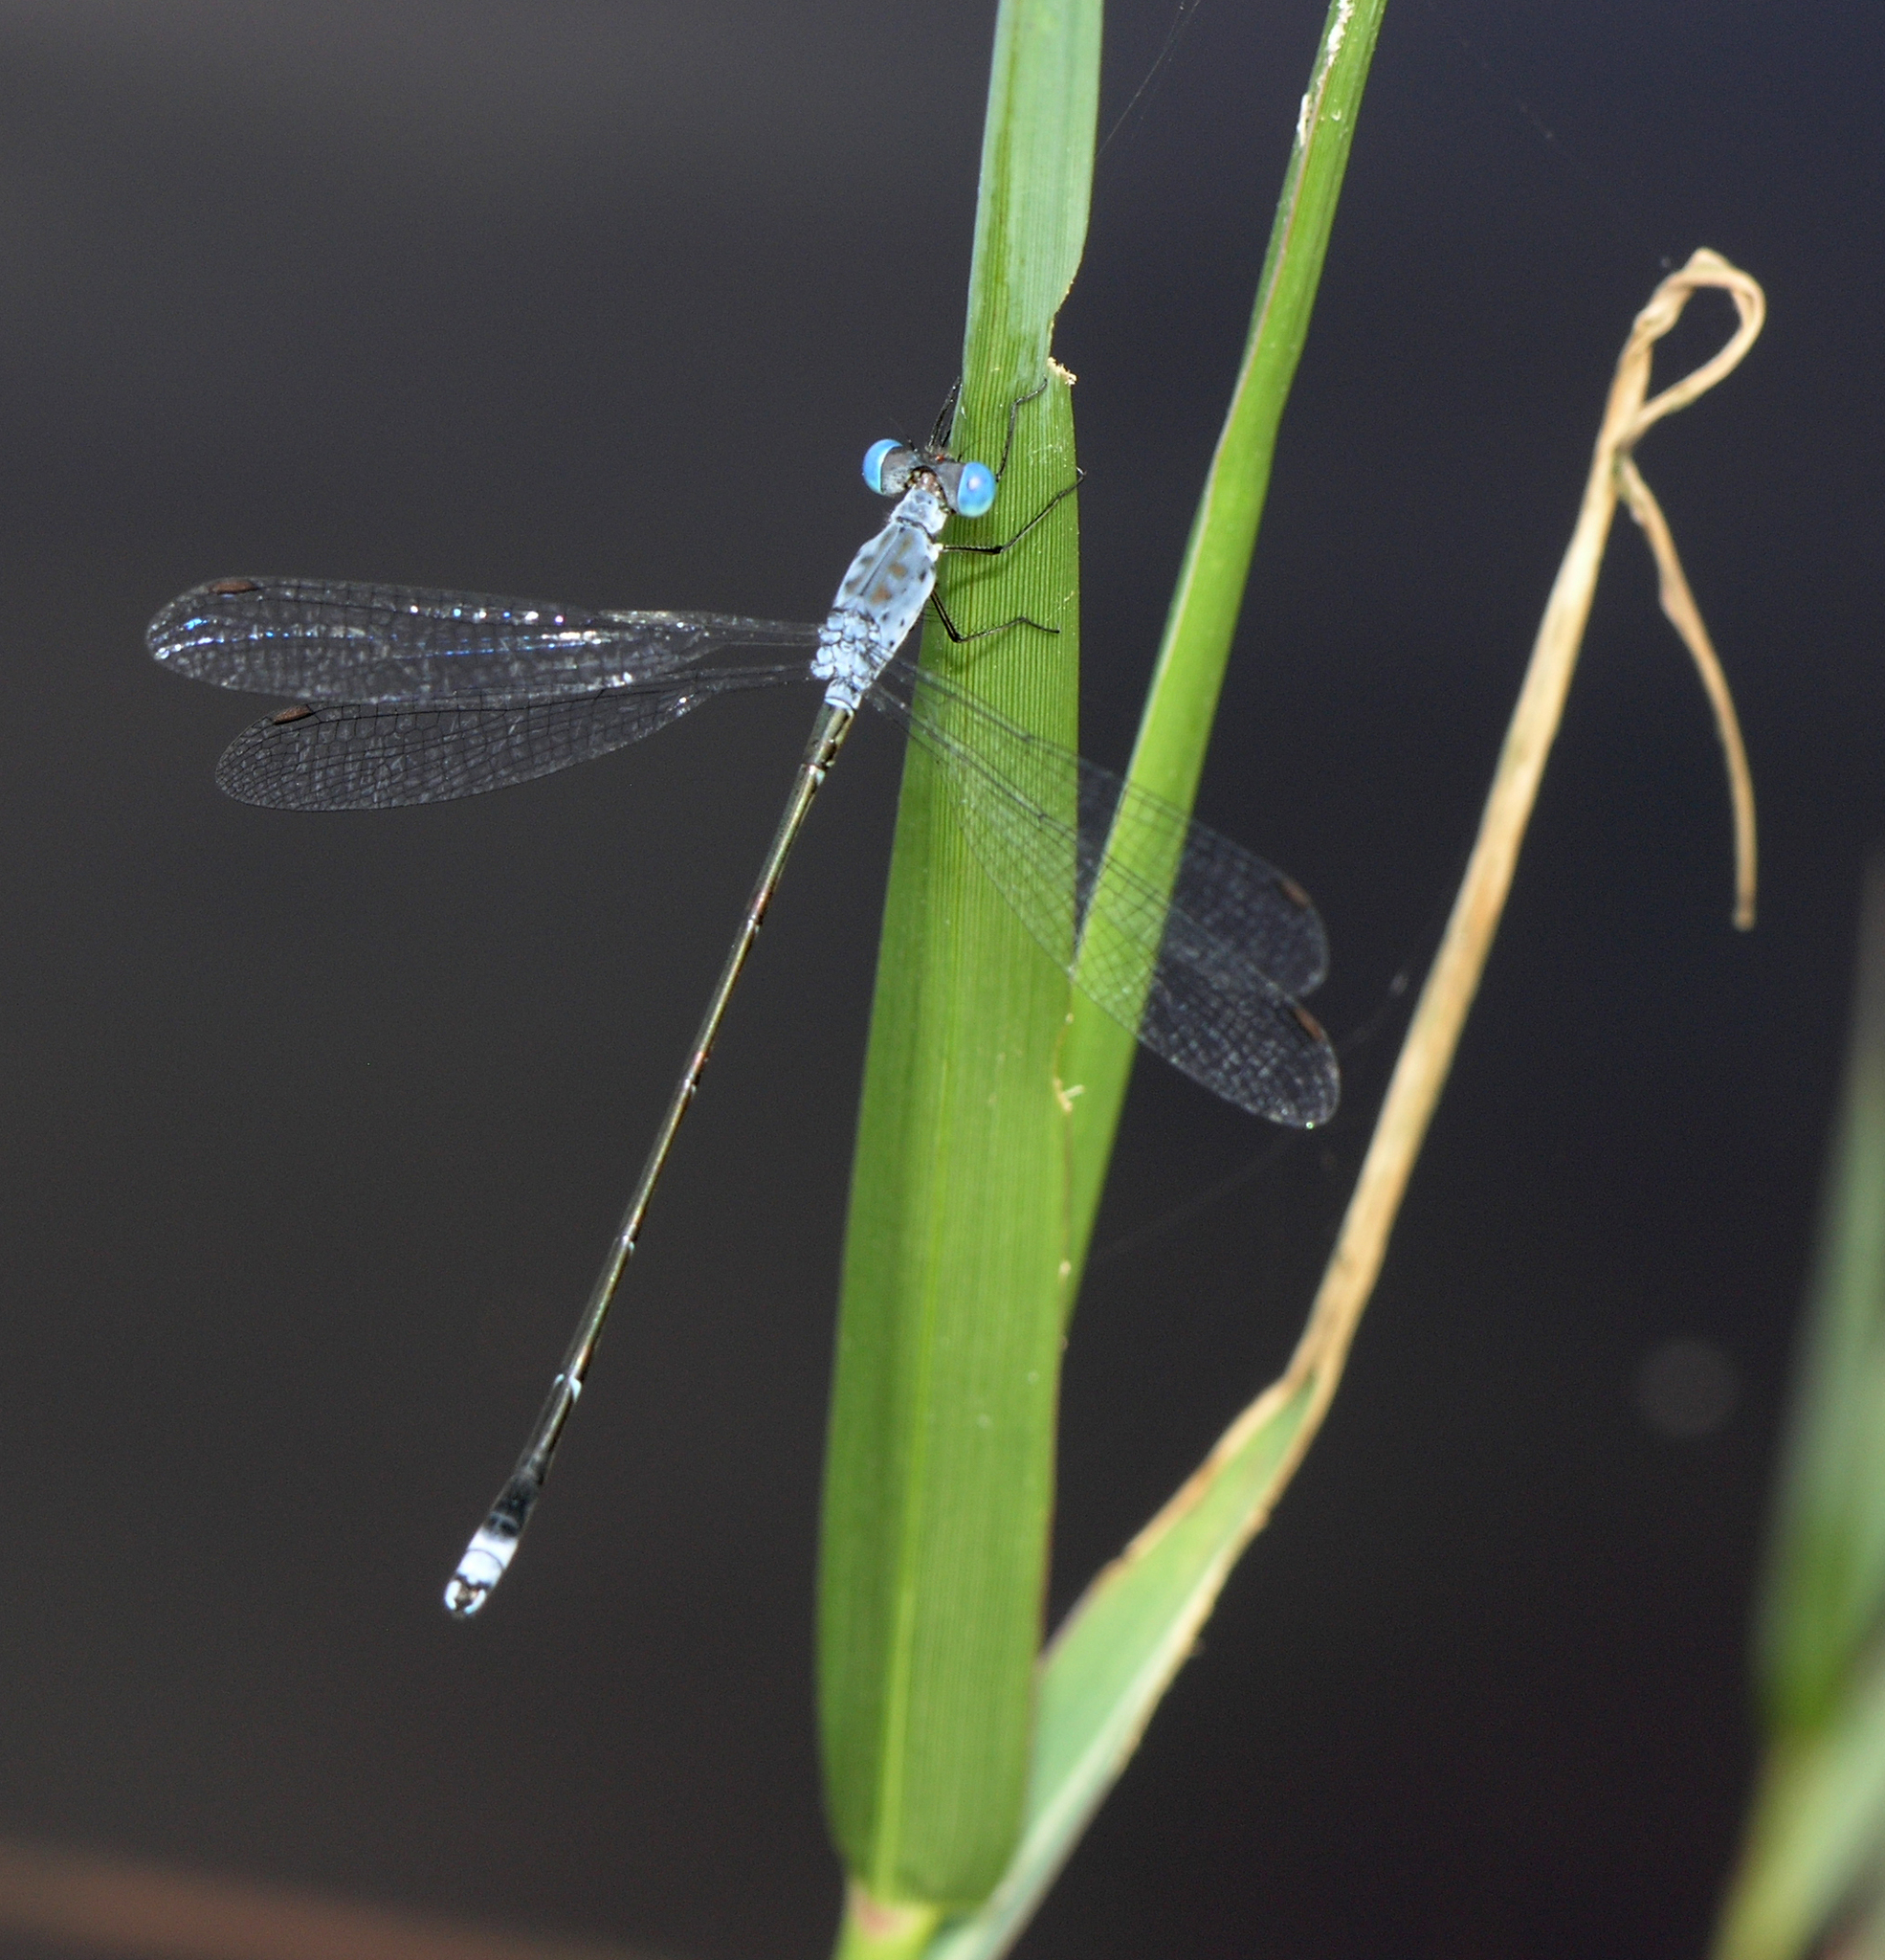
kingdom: Animalia
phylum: Arthropoda
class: Insecta
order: Odonata
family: Lestidae
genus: Lestes
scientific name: Lestes praemorsus
